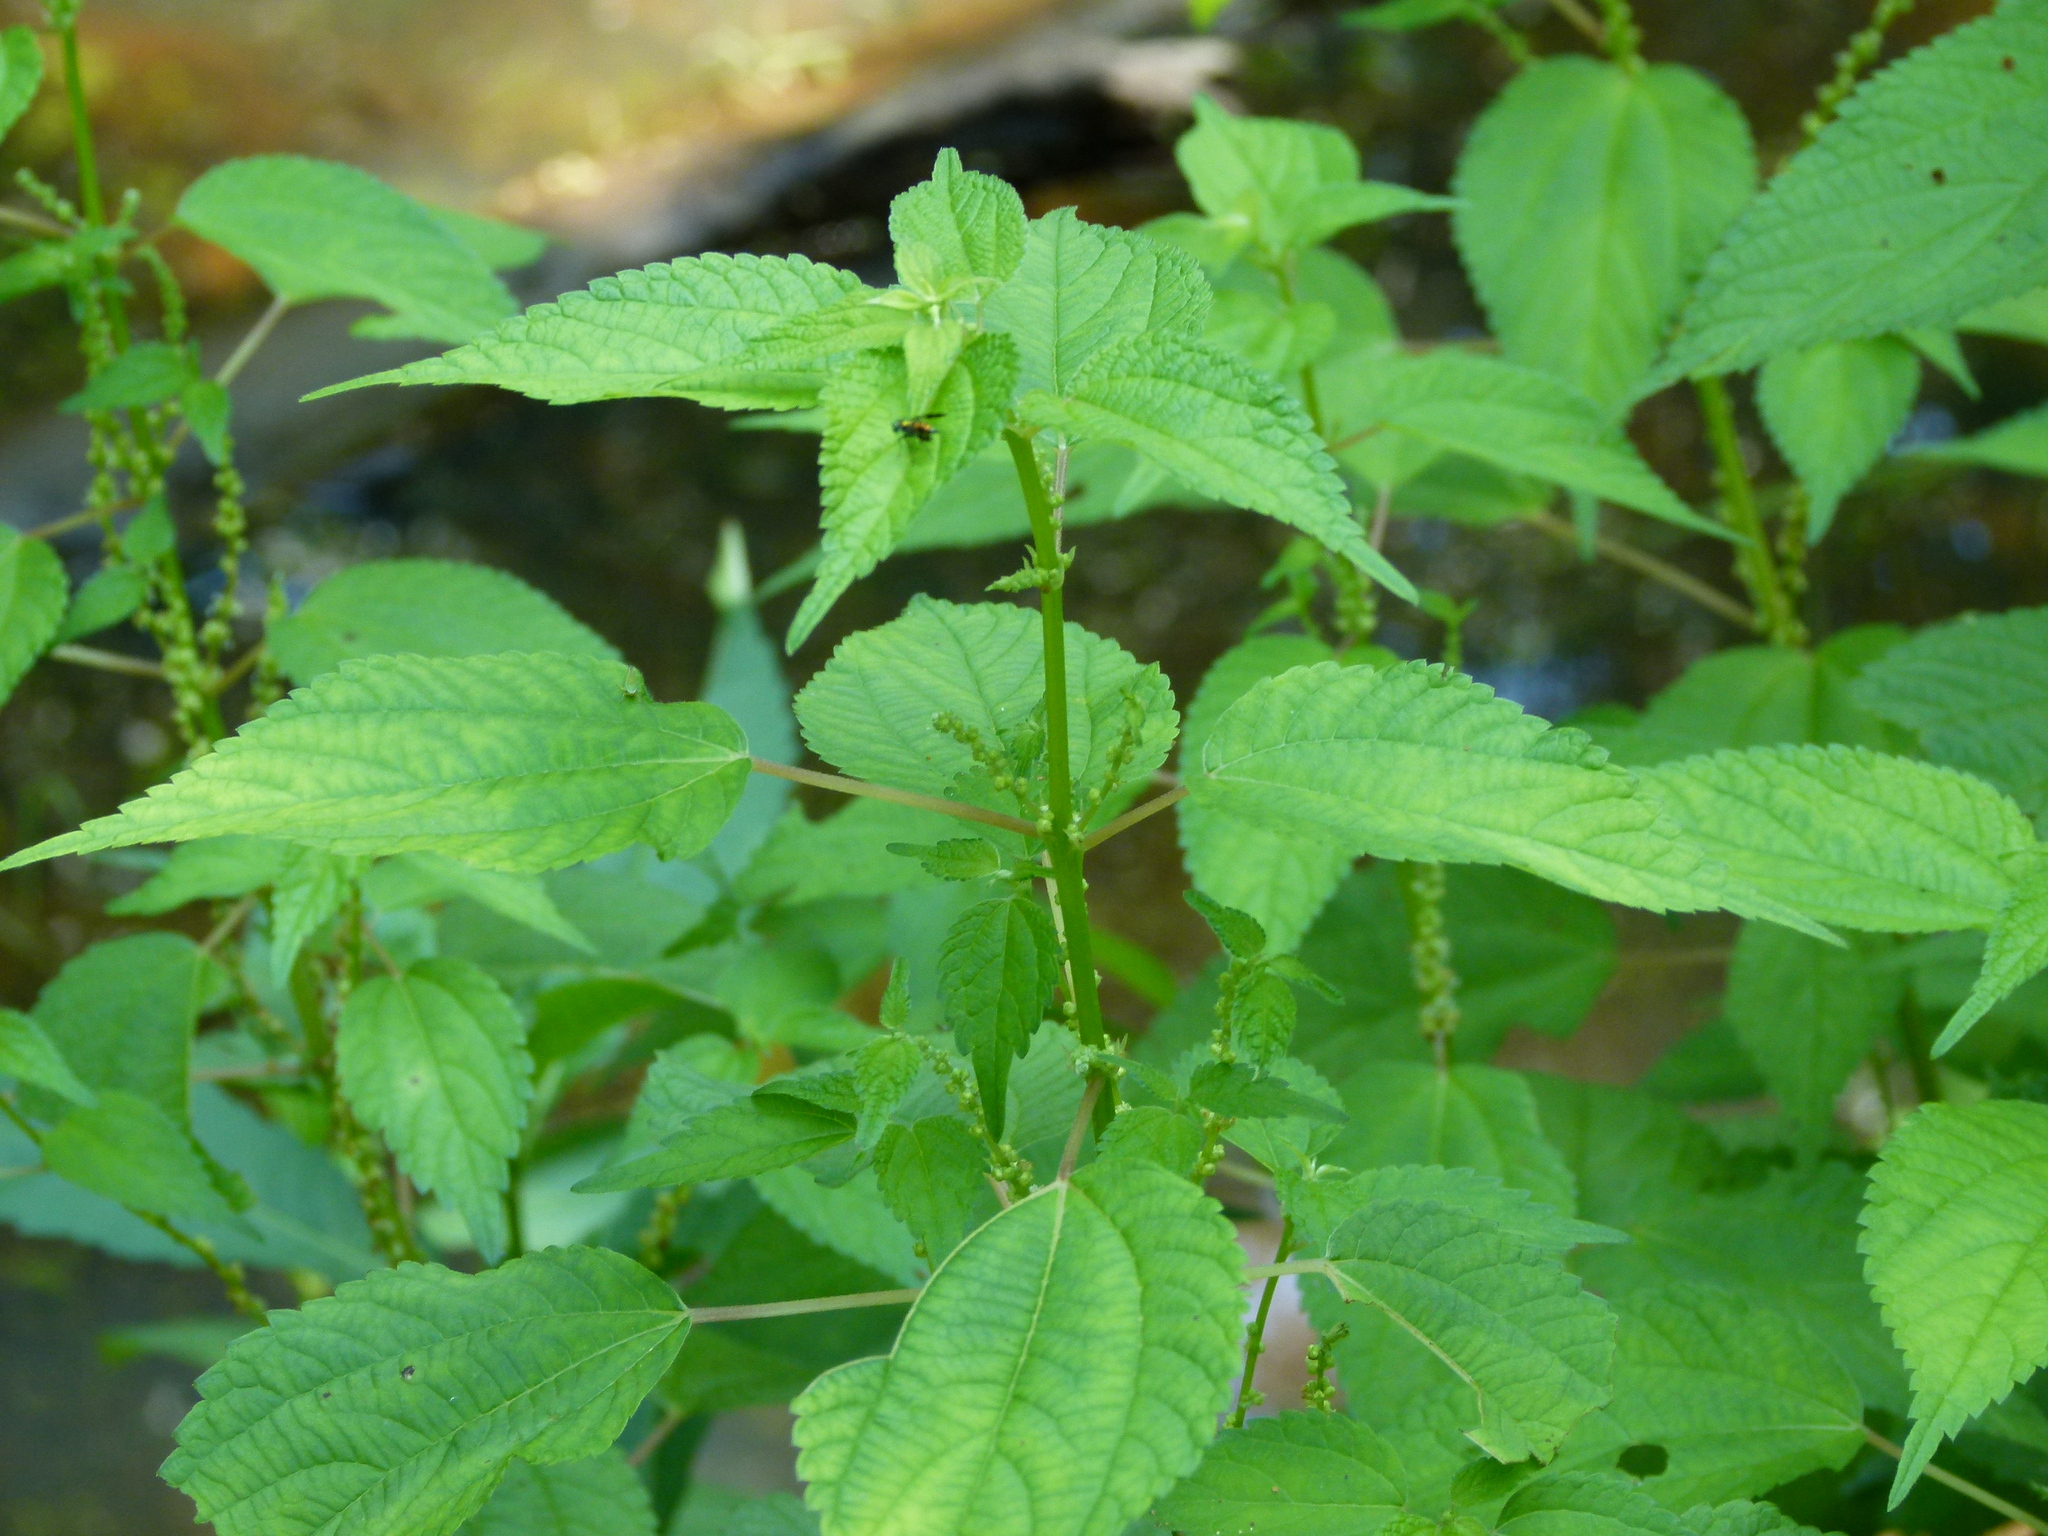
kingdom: Plantae
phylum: Tracheophyta
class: Magnoliopsida
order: Rosales
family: Urticaceae
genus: Boehmeria
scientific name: Boehmeria cylindrica
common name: Bog-hemp
